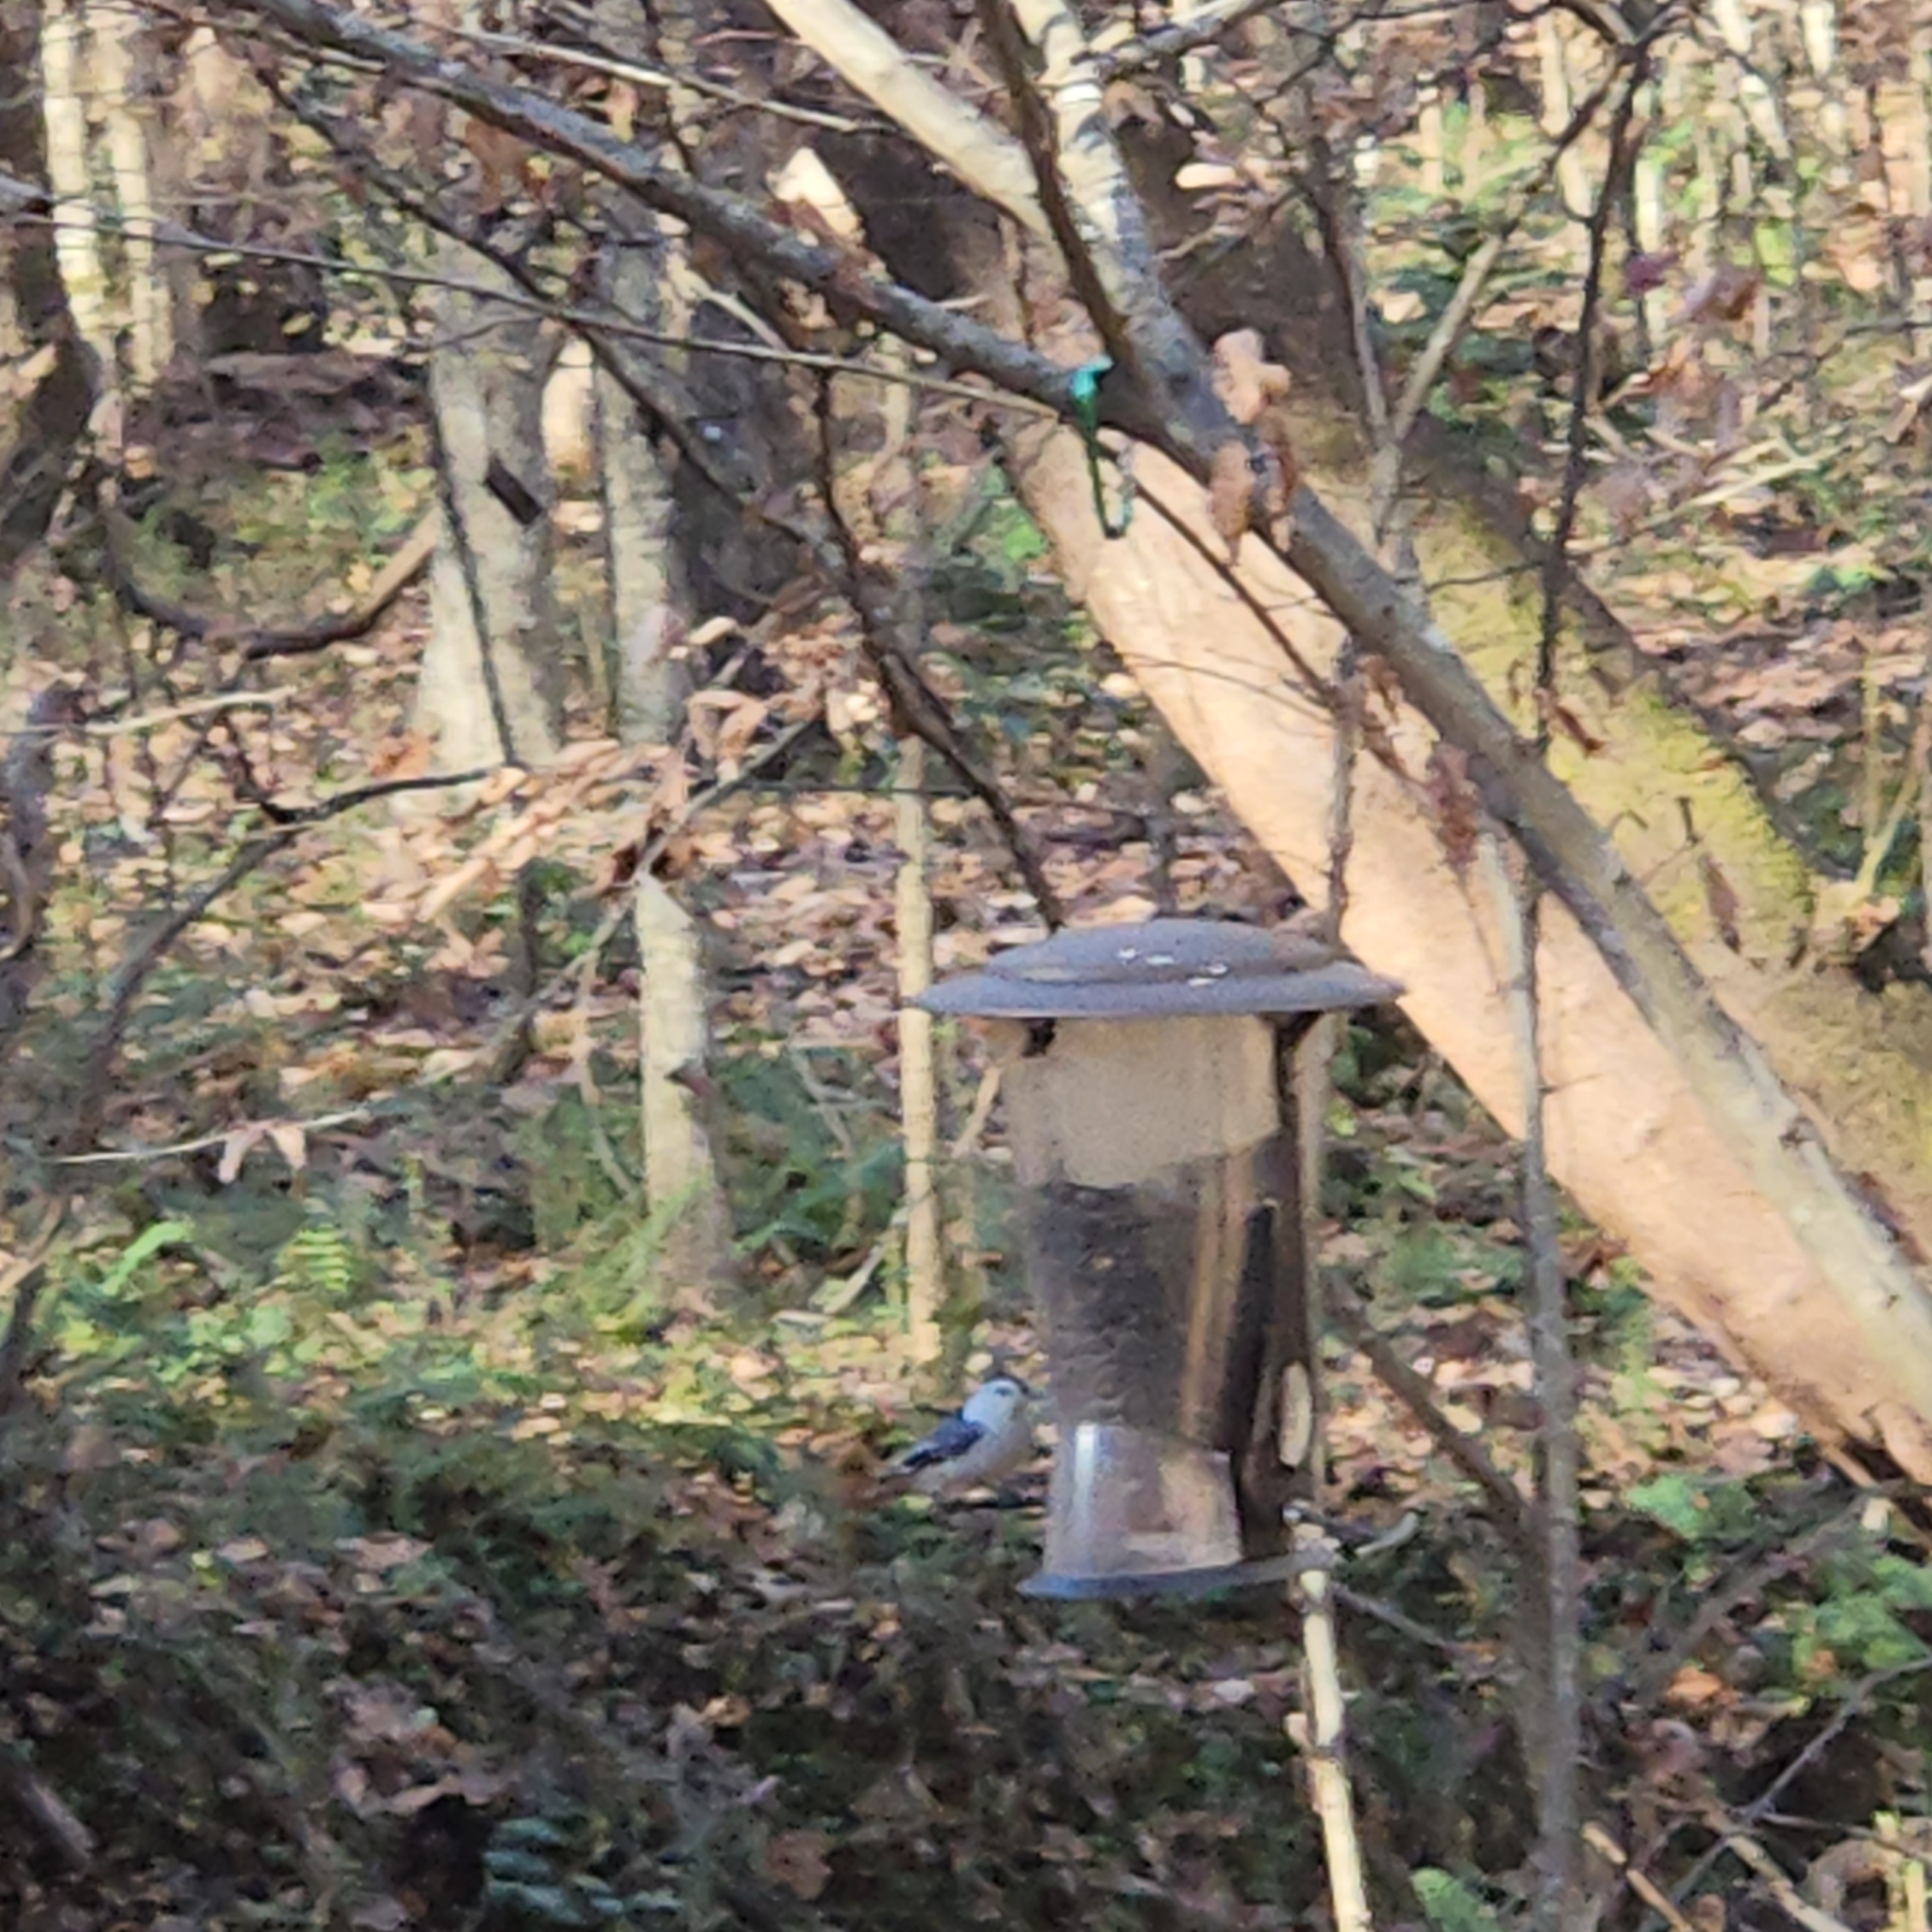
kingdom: Animalia
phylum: Chordata
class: Aves
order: Passeriformes
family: Sittidae
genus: Sitta
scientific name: Sitta carolinensis
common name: White-breasted nuthatch
